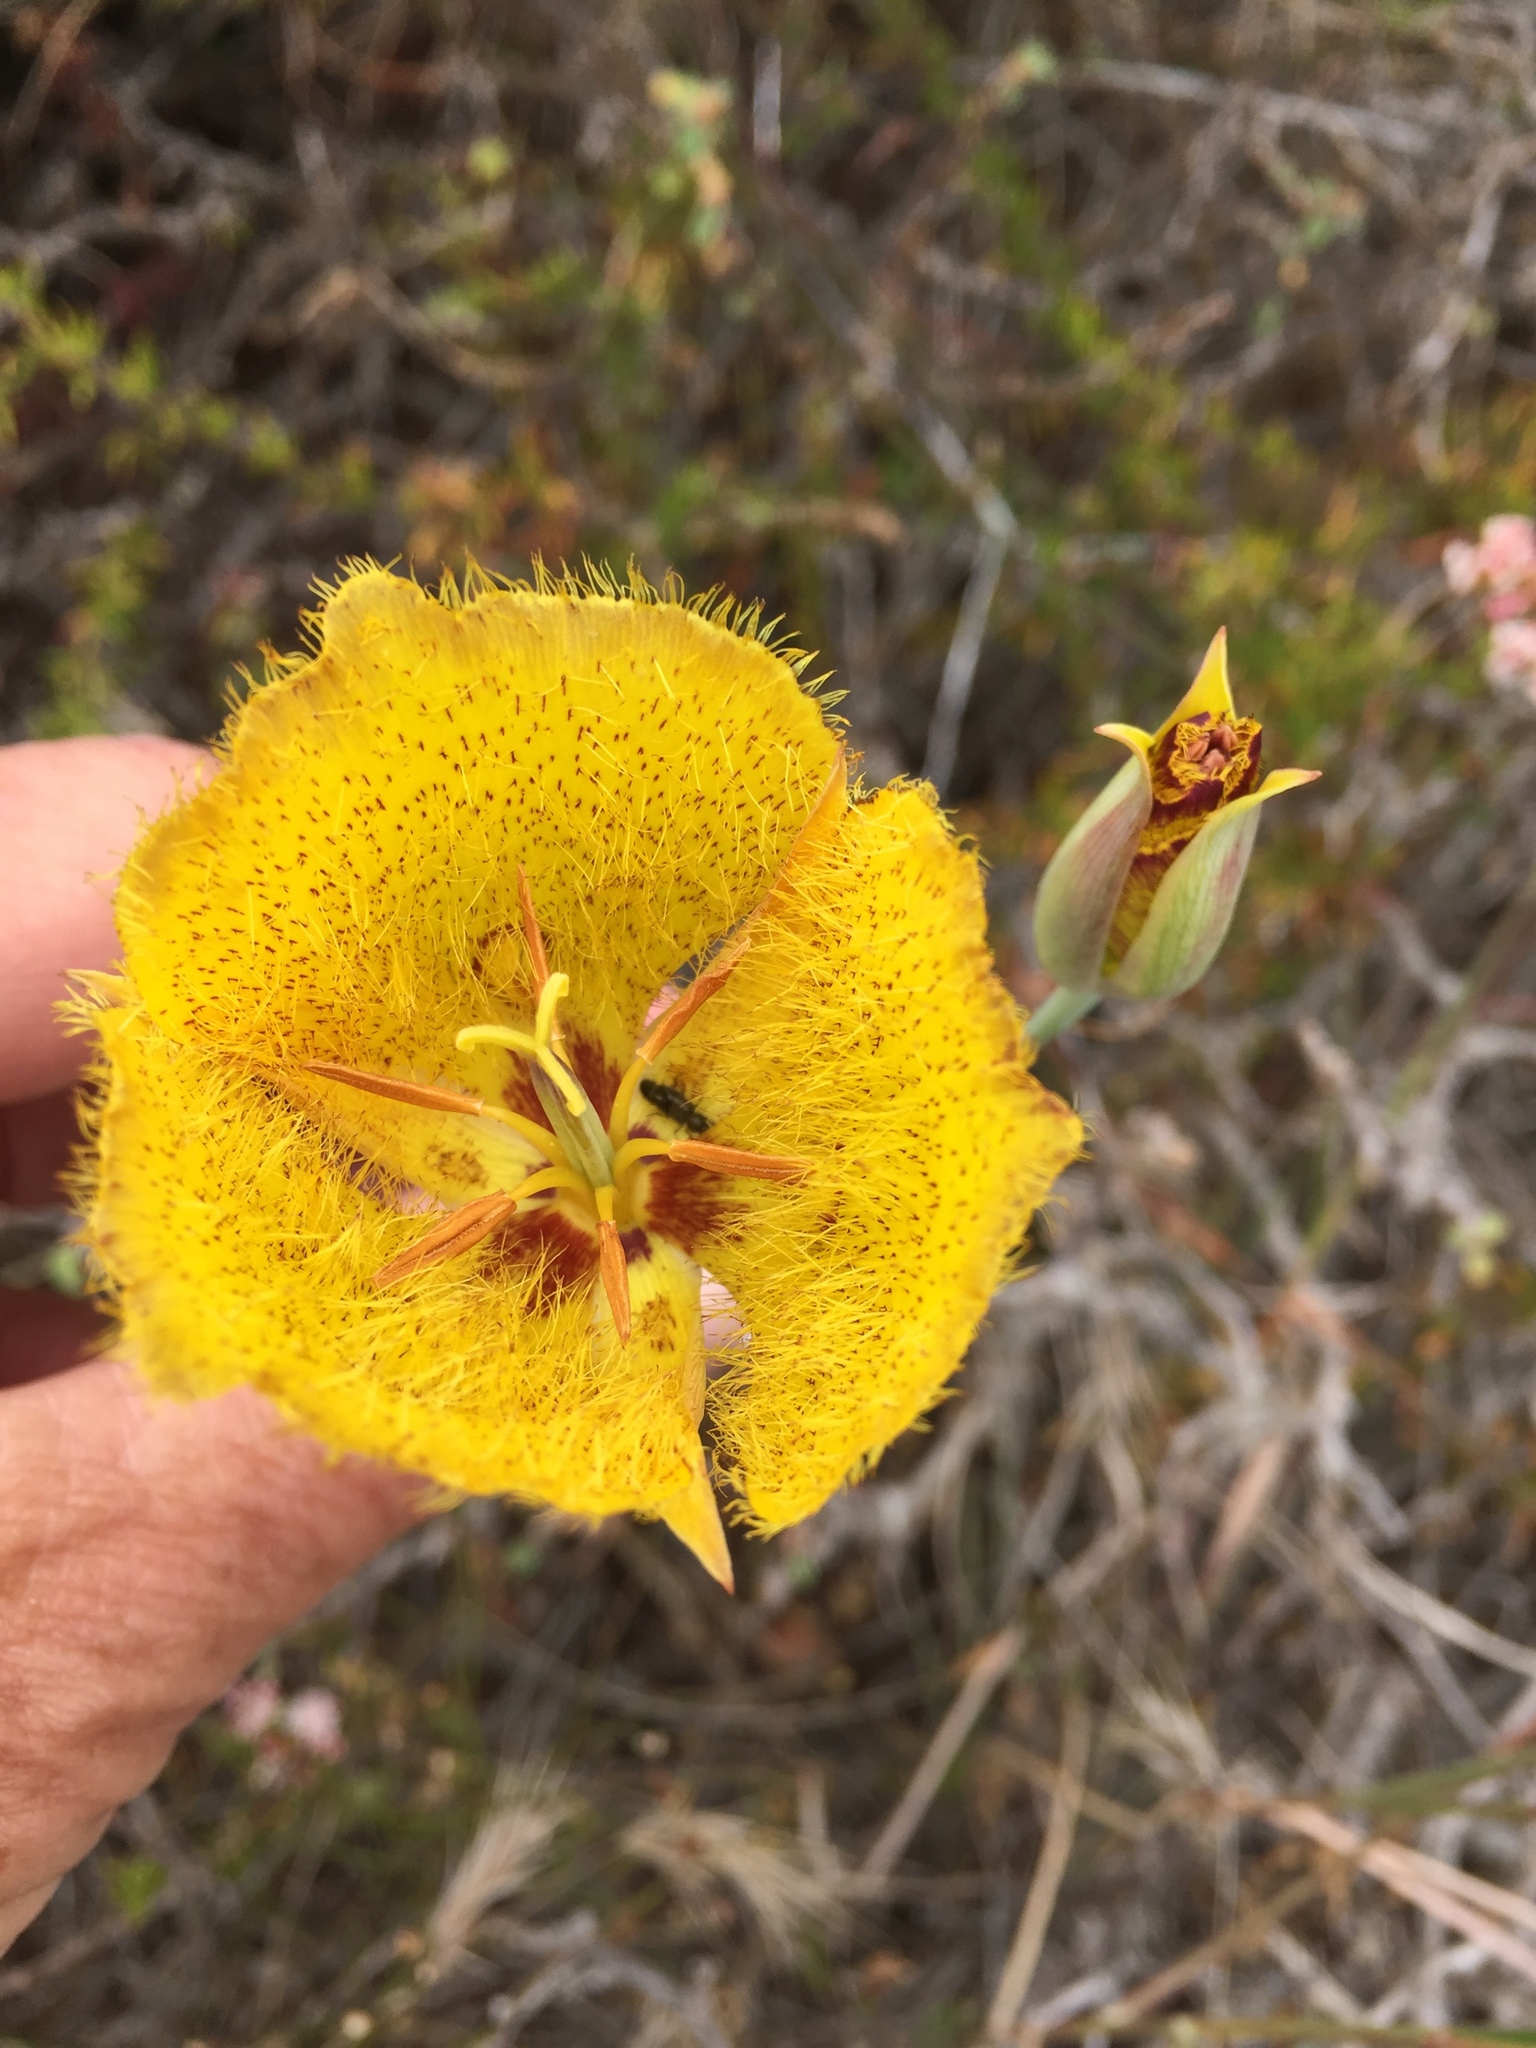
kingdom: Plantae
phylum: Tracheophyta
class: Liliopsida
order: Liliales
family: Liliaceae
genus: Calochortus
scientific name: Calochortus weedii
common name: Weed's mariposa-lily
